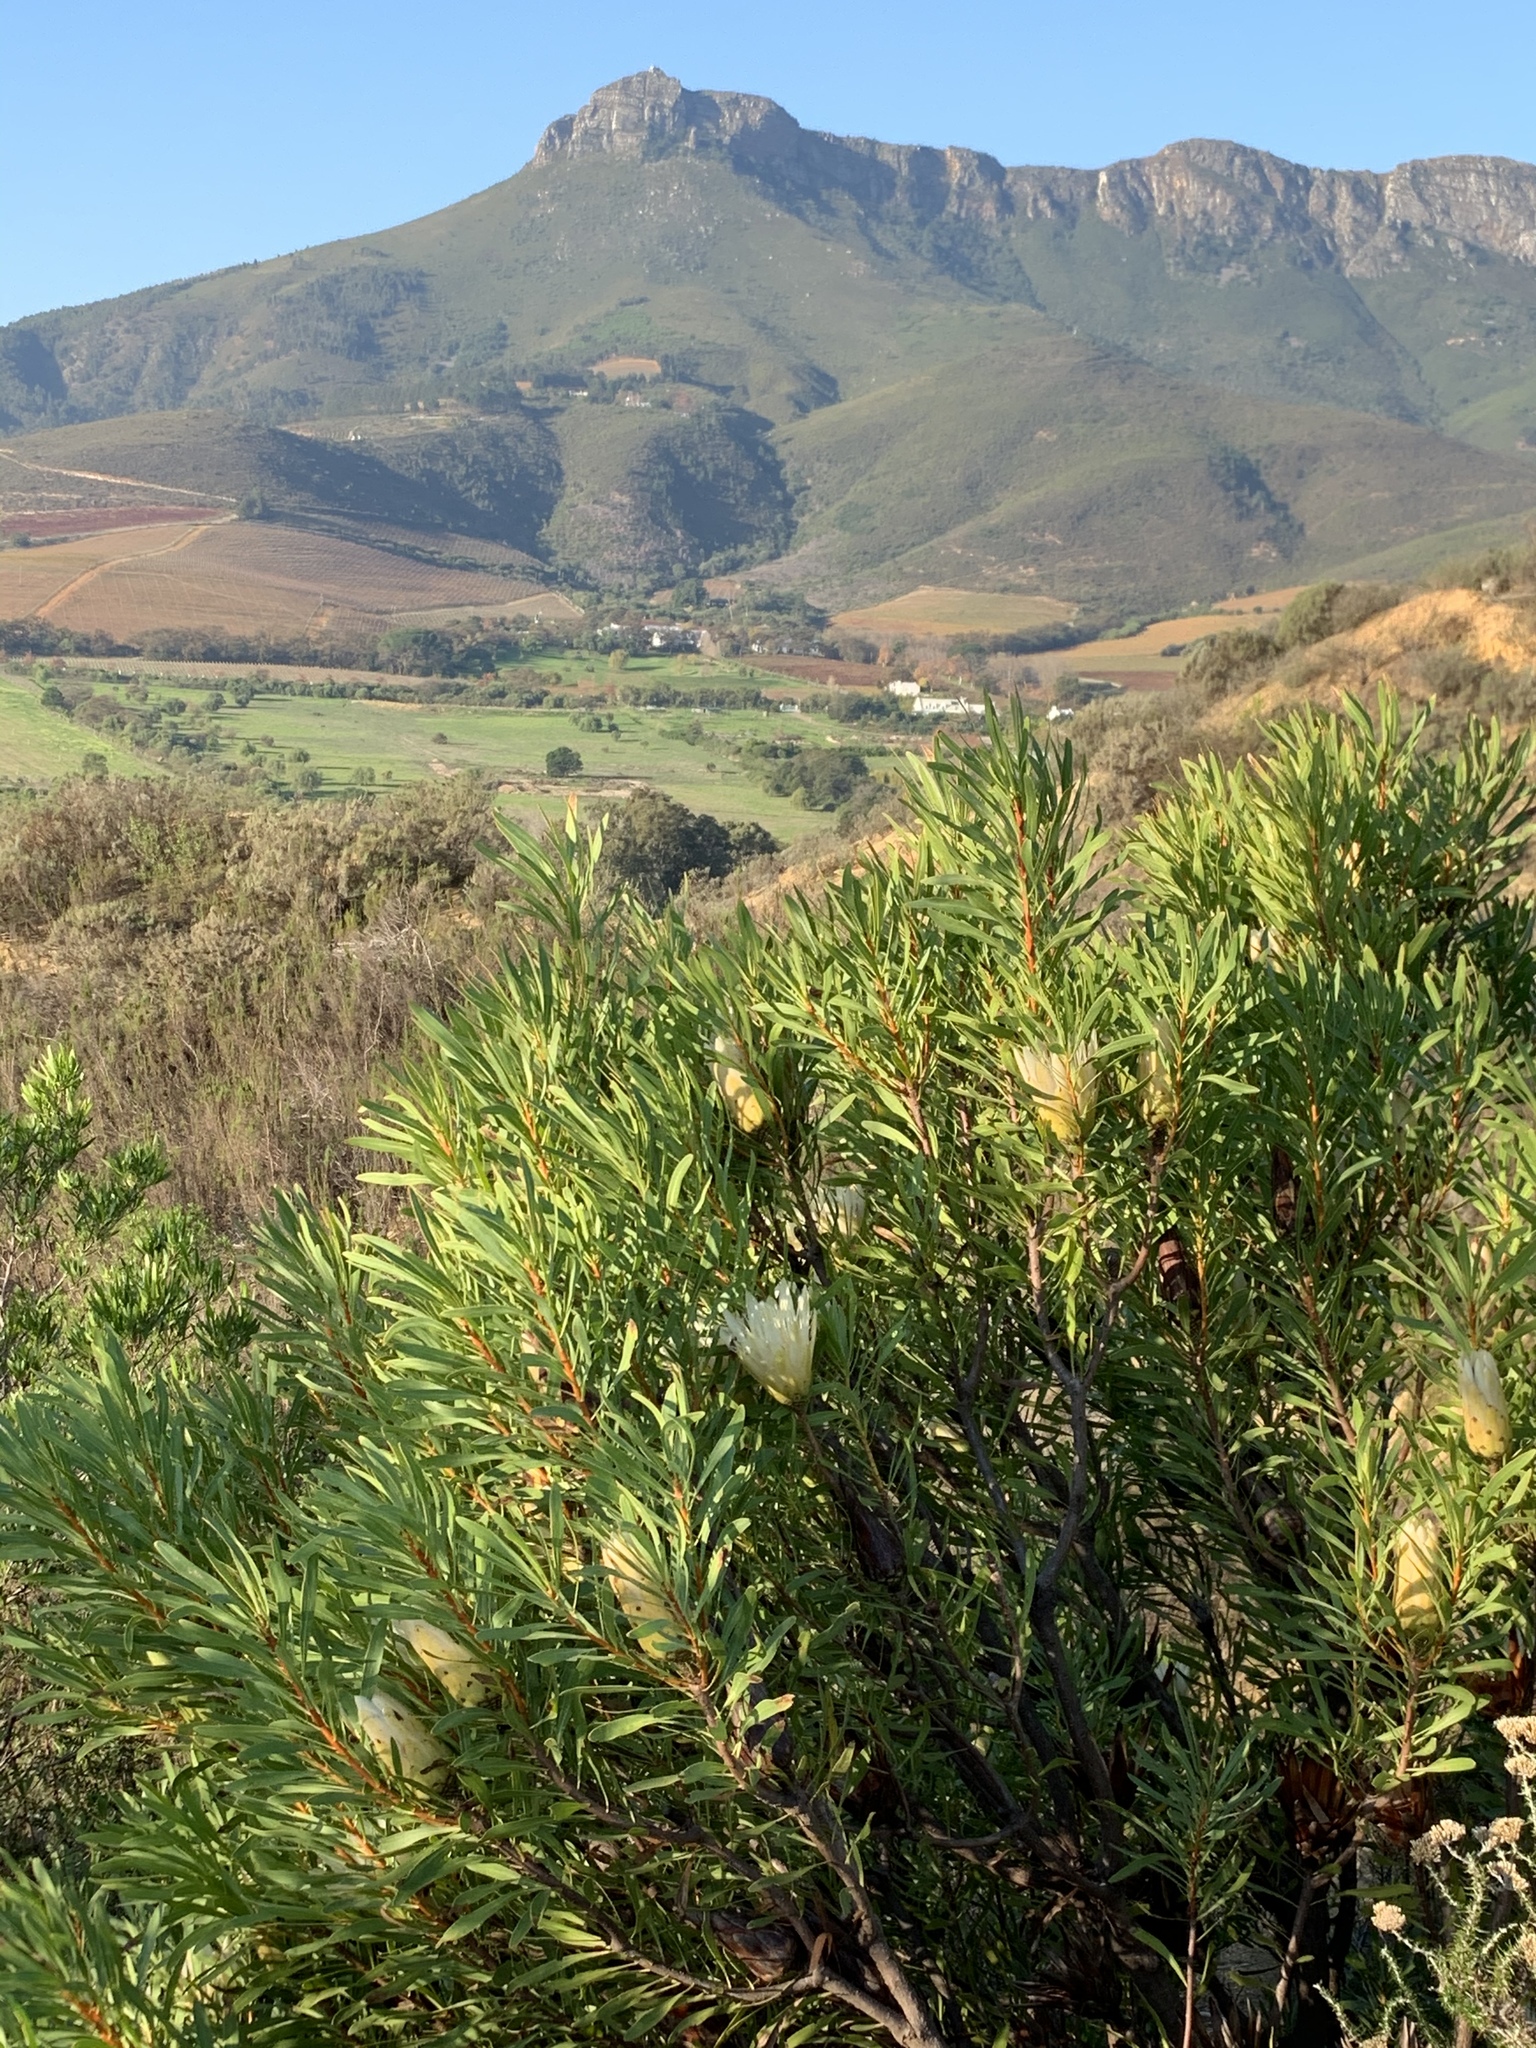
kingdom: Plantae
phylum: Tracheophyta
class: Magnoliopsida
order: Proteales
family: Proteaceae
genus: Protea
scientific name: Protea repens
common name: Sugarbush
